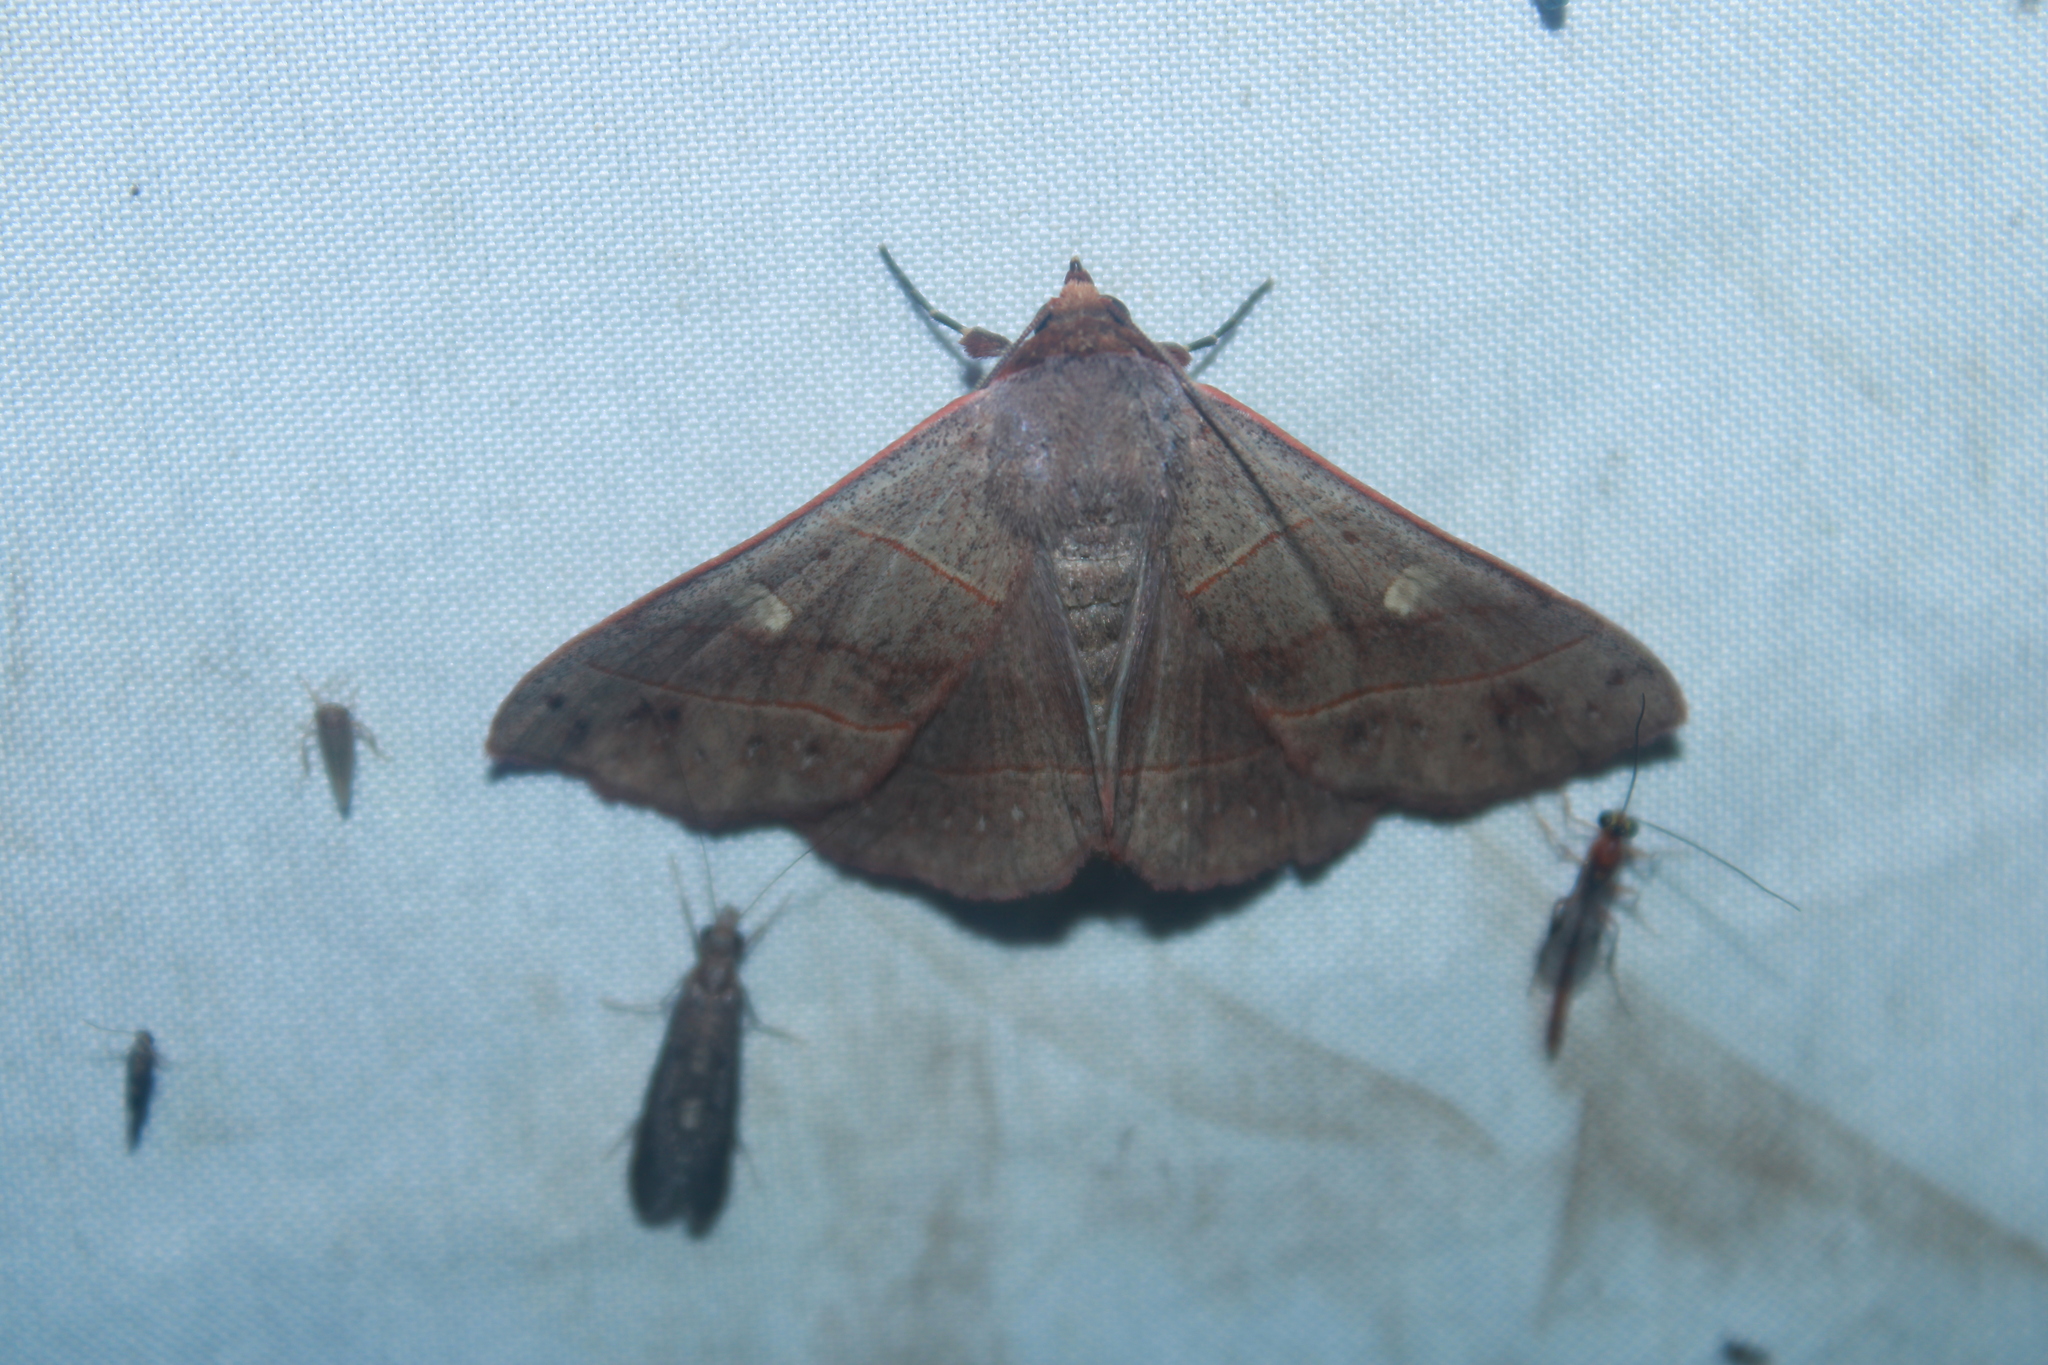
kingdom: Animalia
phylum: Arthropoda
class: Insecta
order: Lepidoptera
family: Erebidae
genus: Panopoda
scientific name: Panopoda rufimargo
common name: Red-lined panopoda moth
